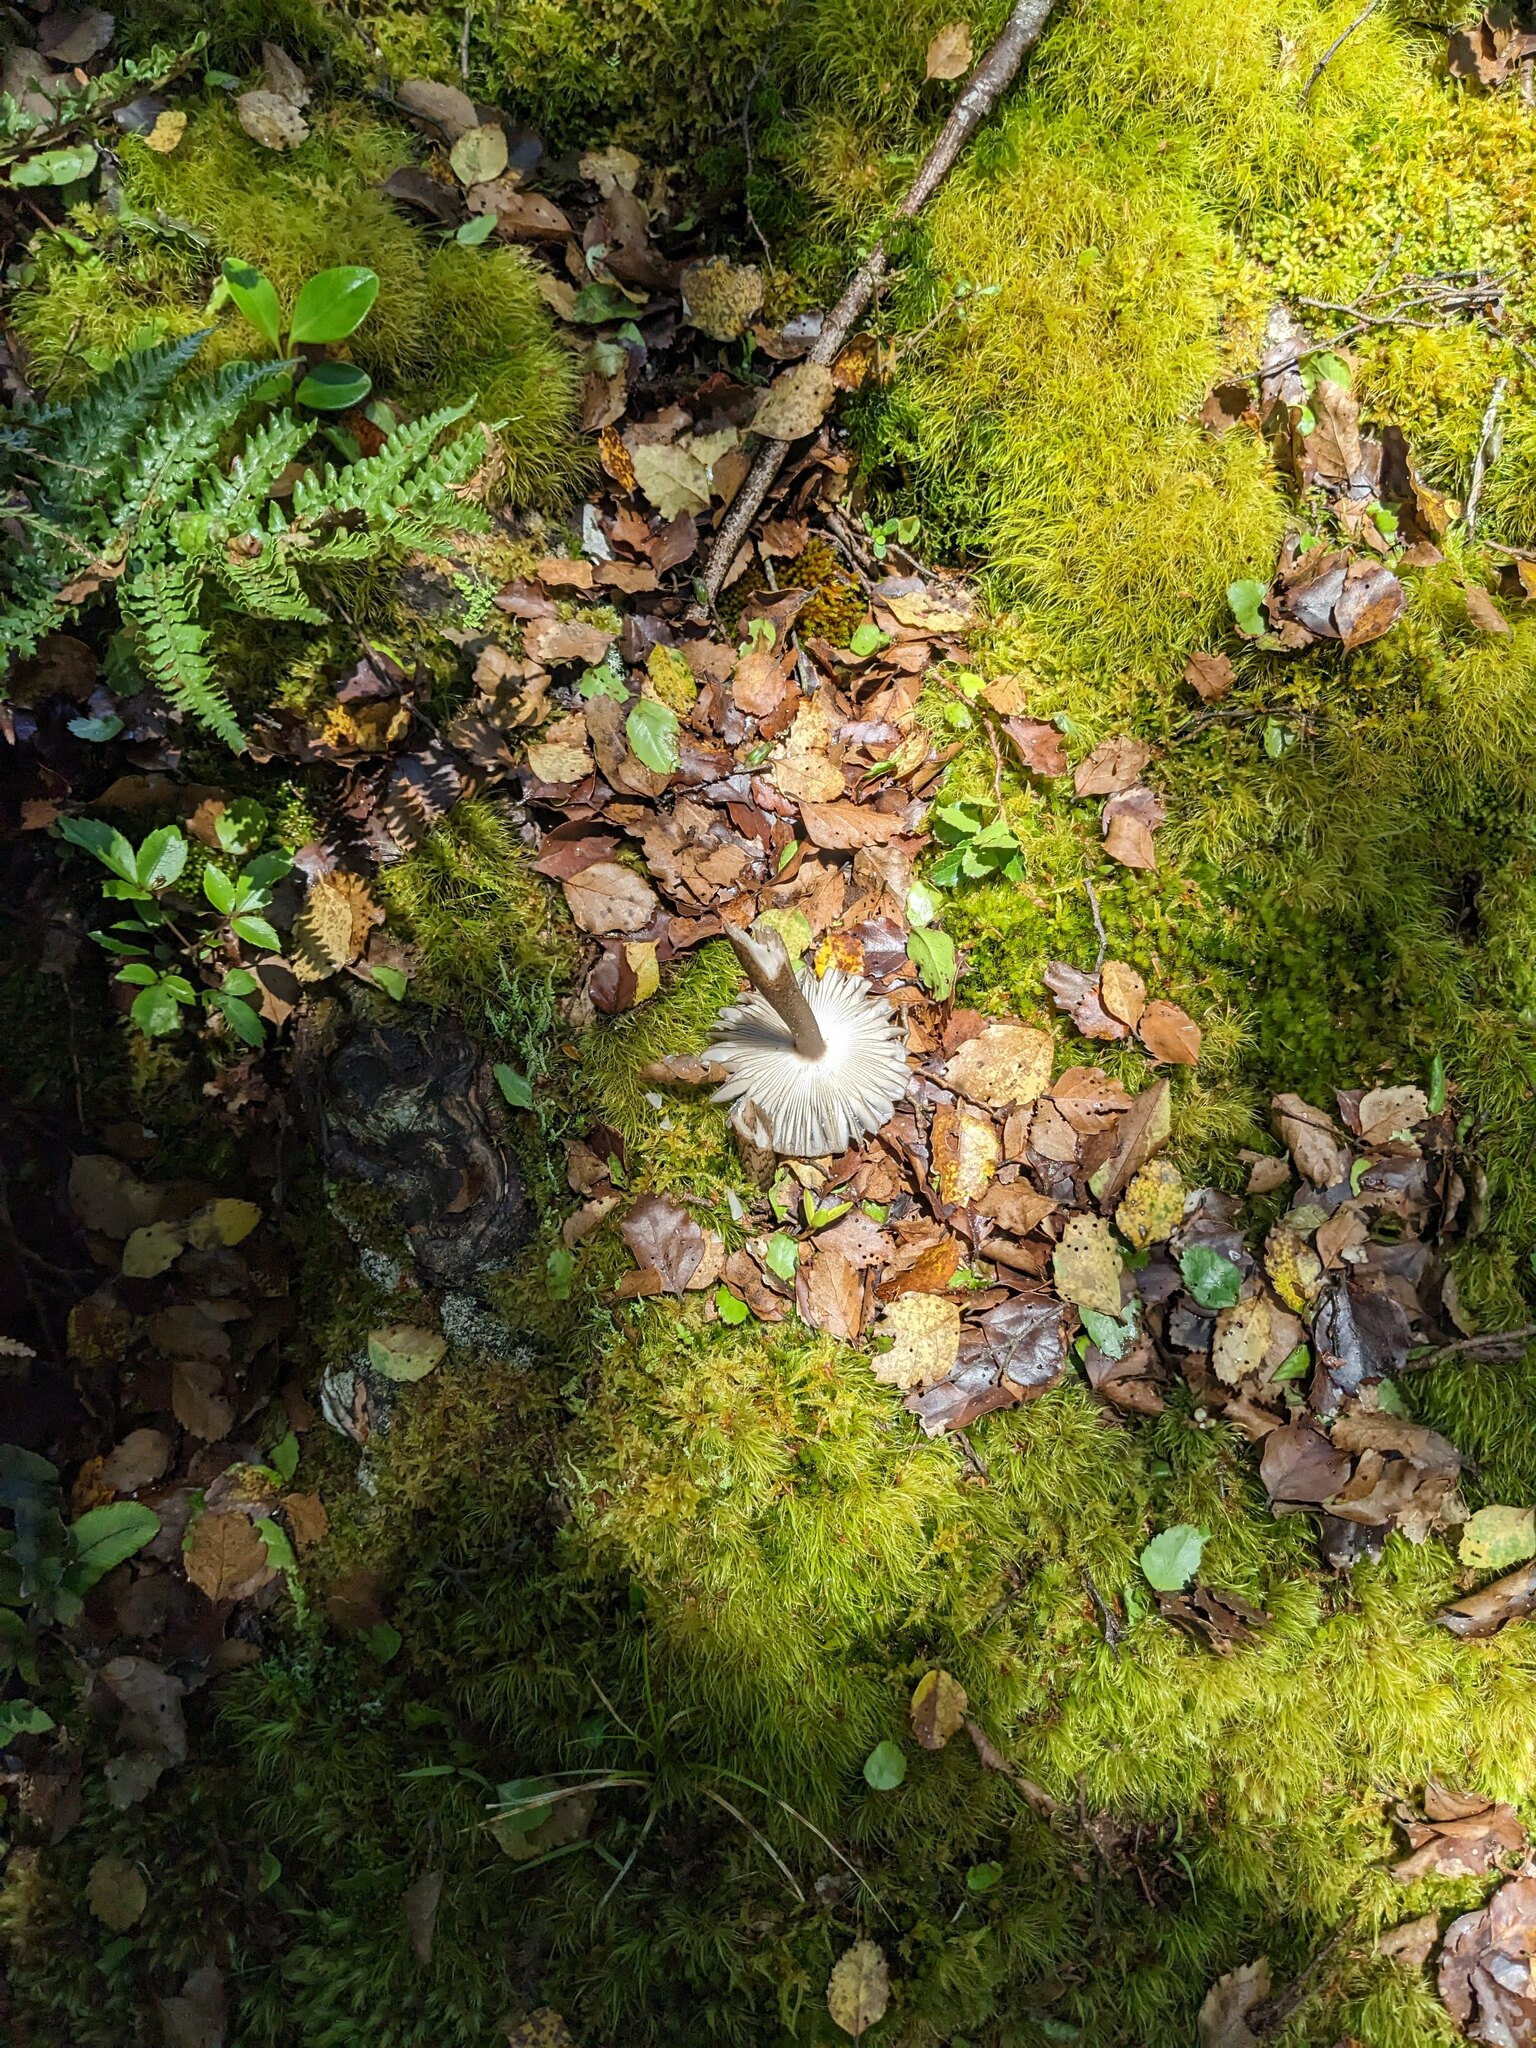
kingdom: Fungi
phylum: Basidiomycota
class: Agaricomycetes
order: Agaricales
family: Amanitaceae
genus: Amanita
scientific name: Amanita pekeoides
